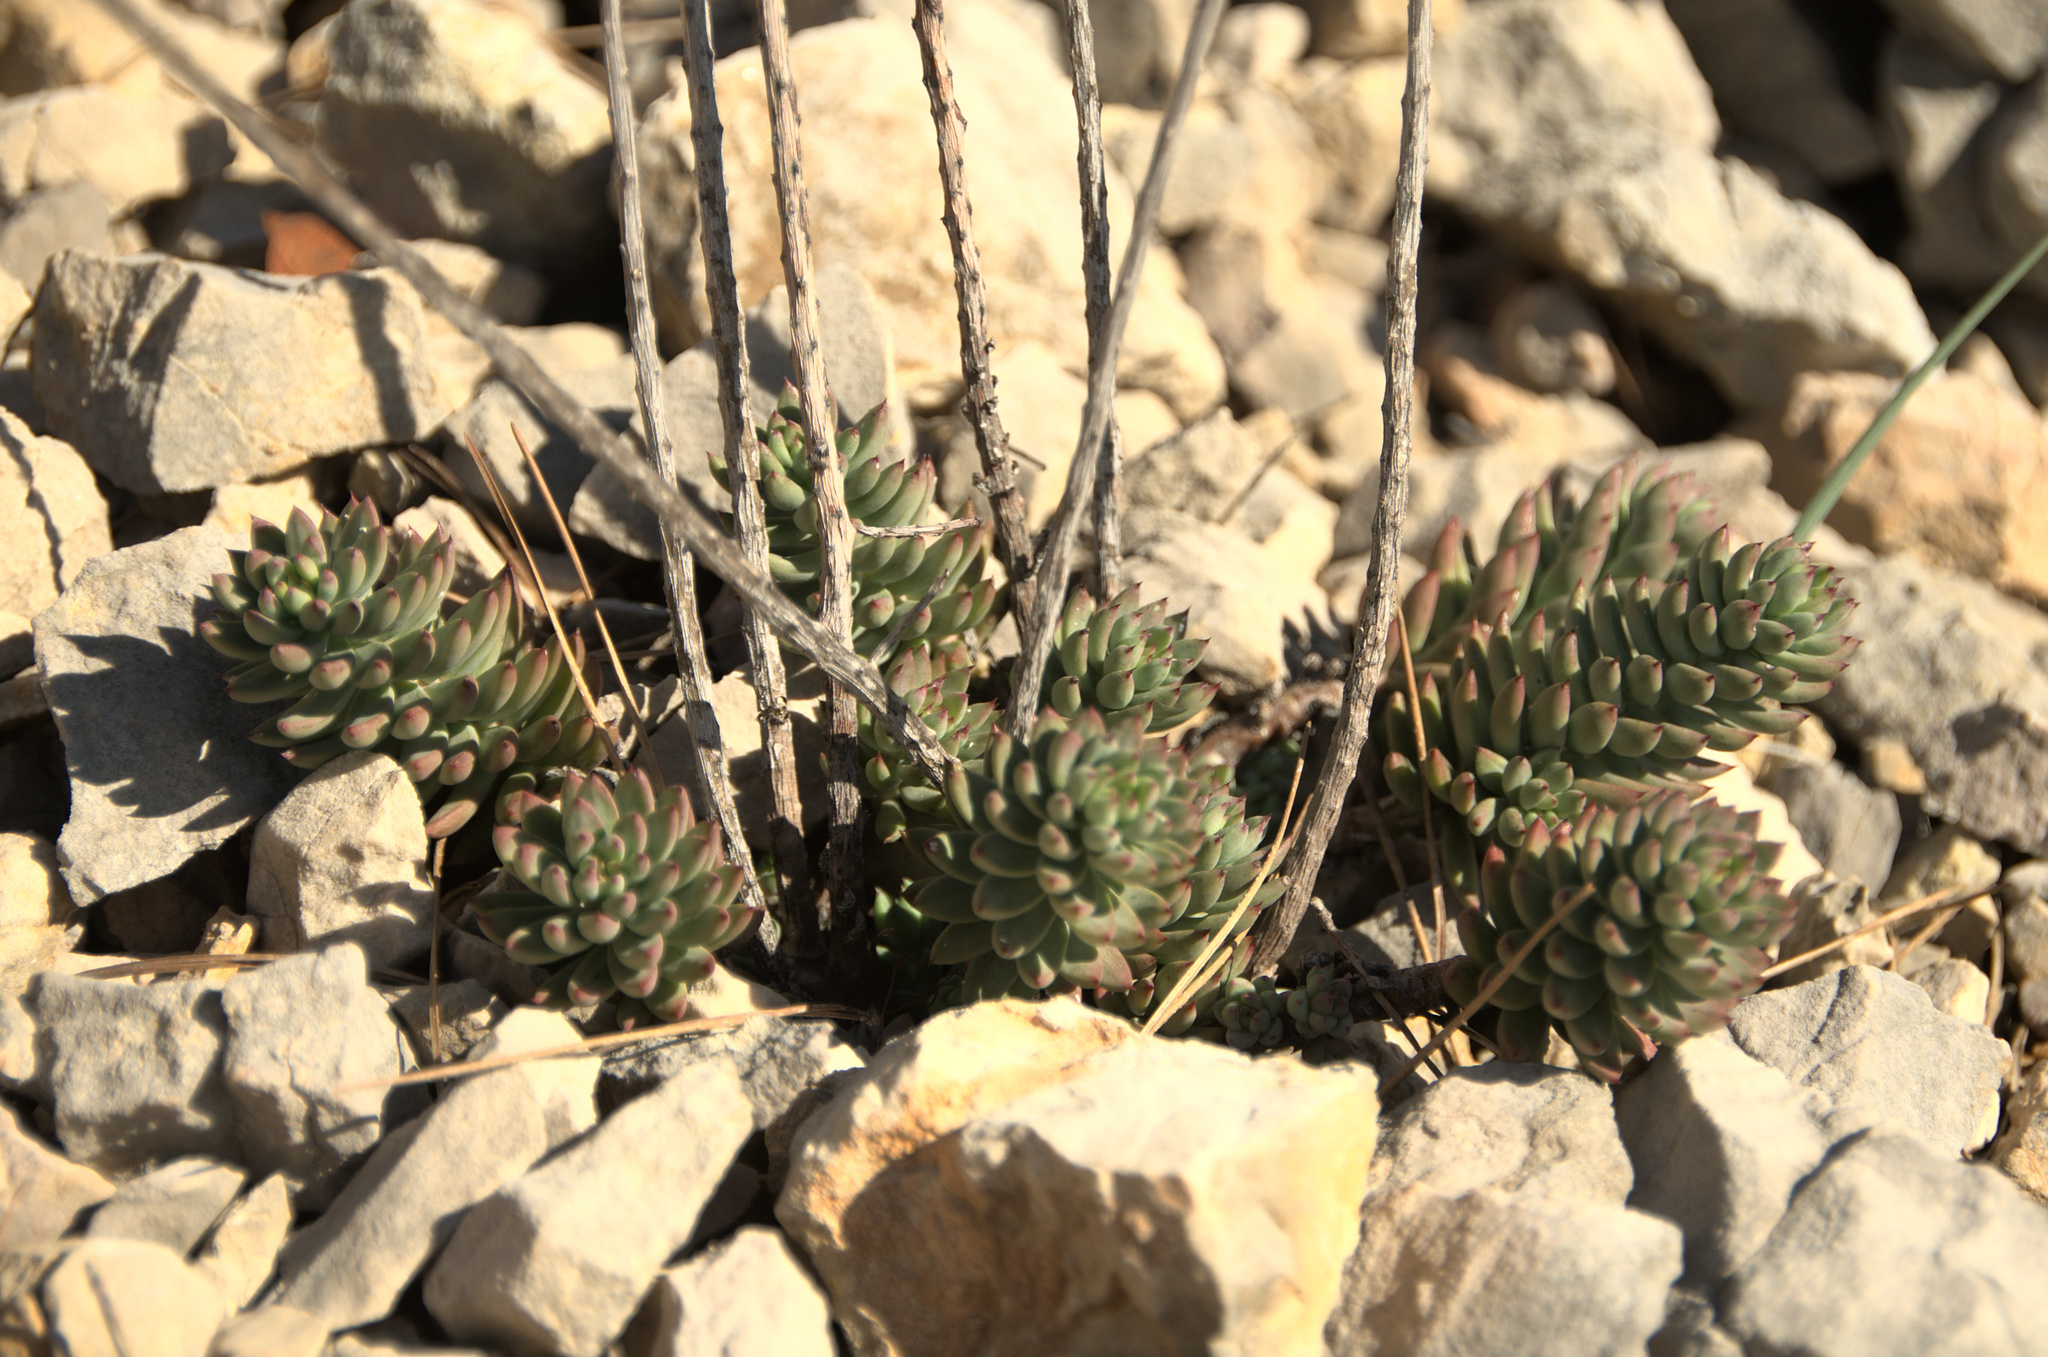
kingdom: Plantae
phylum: Tracheophyta
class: Magnoliopsida
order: Saxifragales
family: Crassulaceae
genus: Petrosedum
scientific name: Petrosedum sediforme
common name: Pale stonecrop
